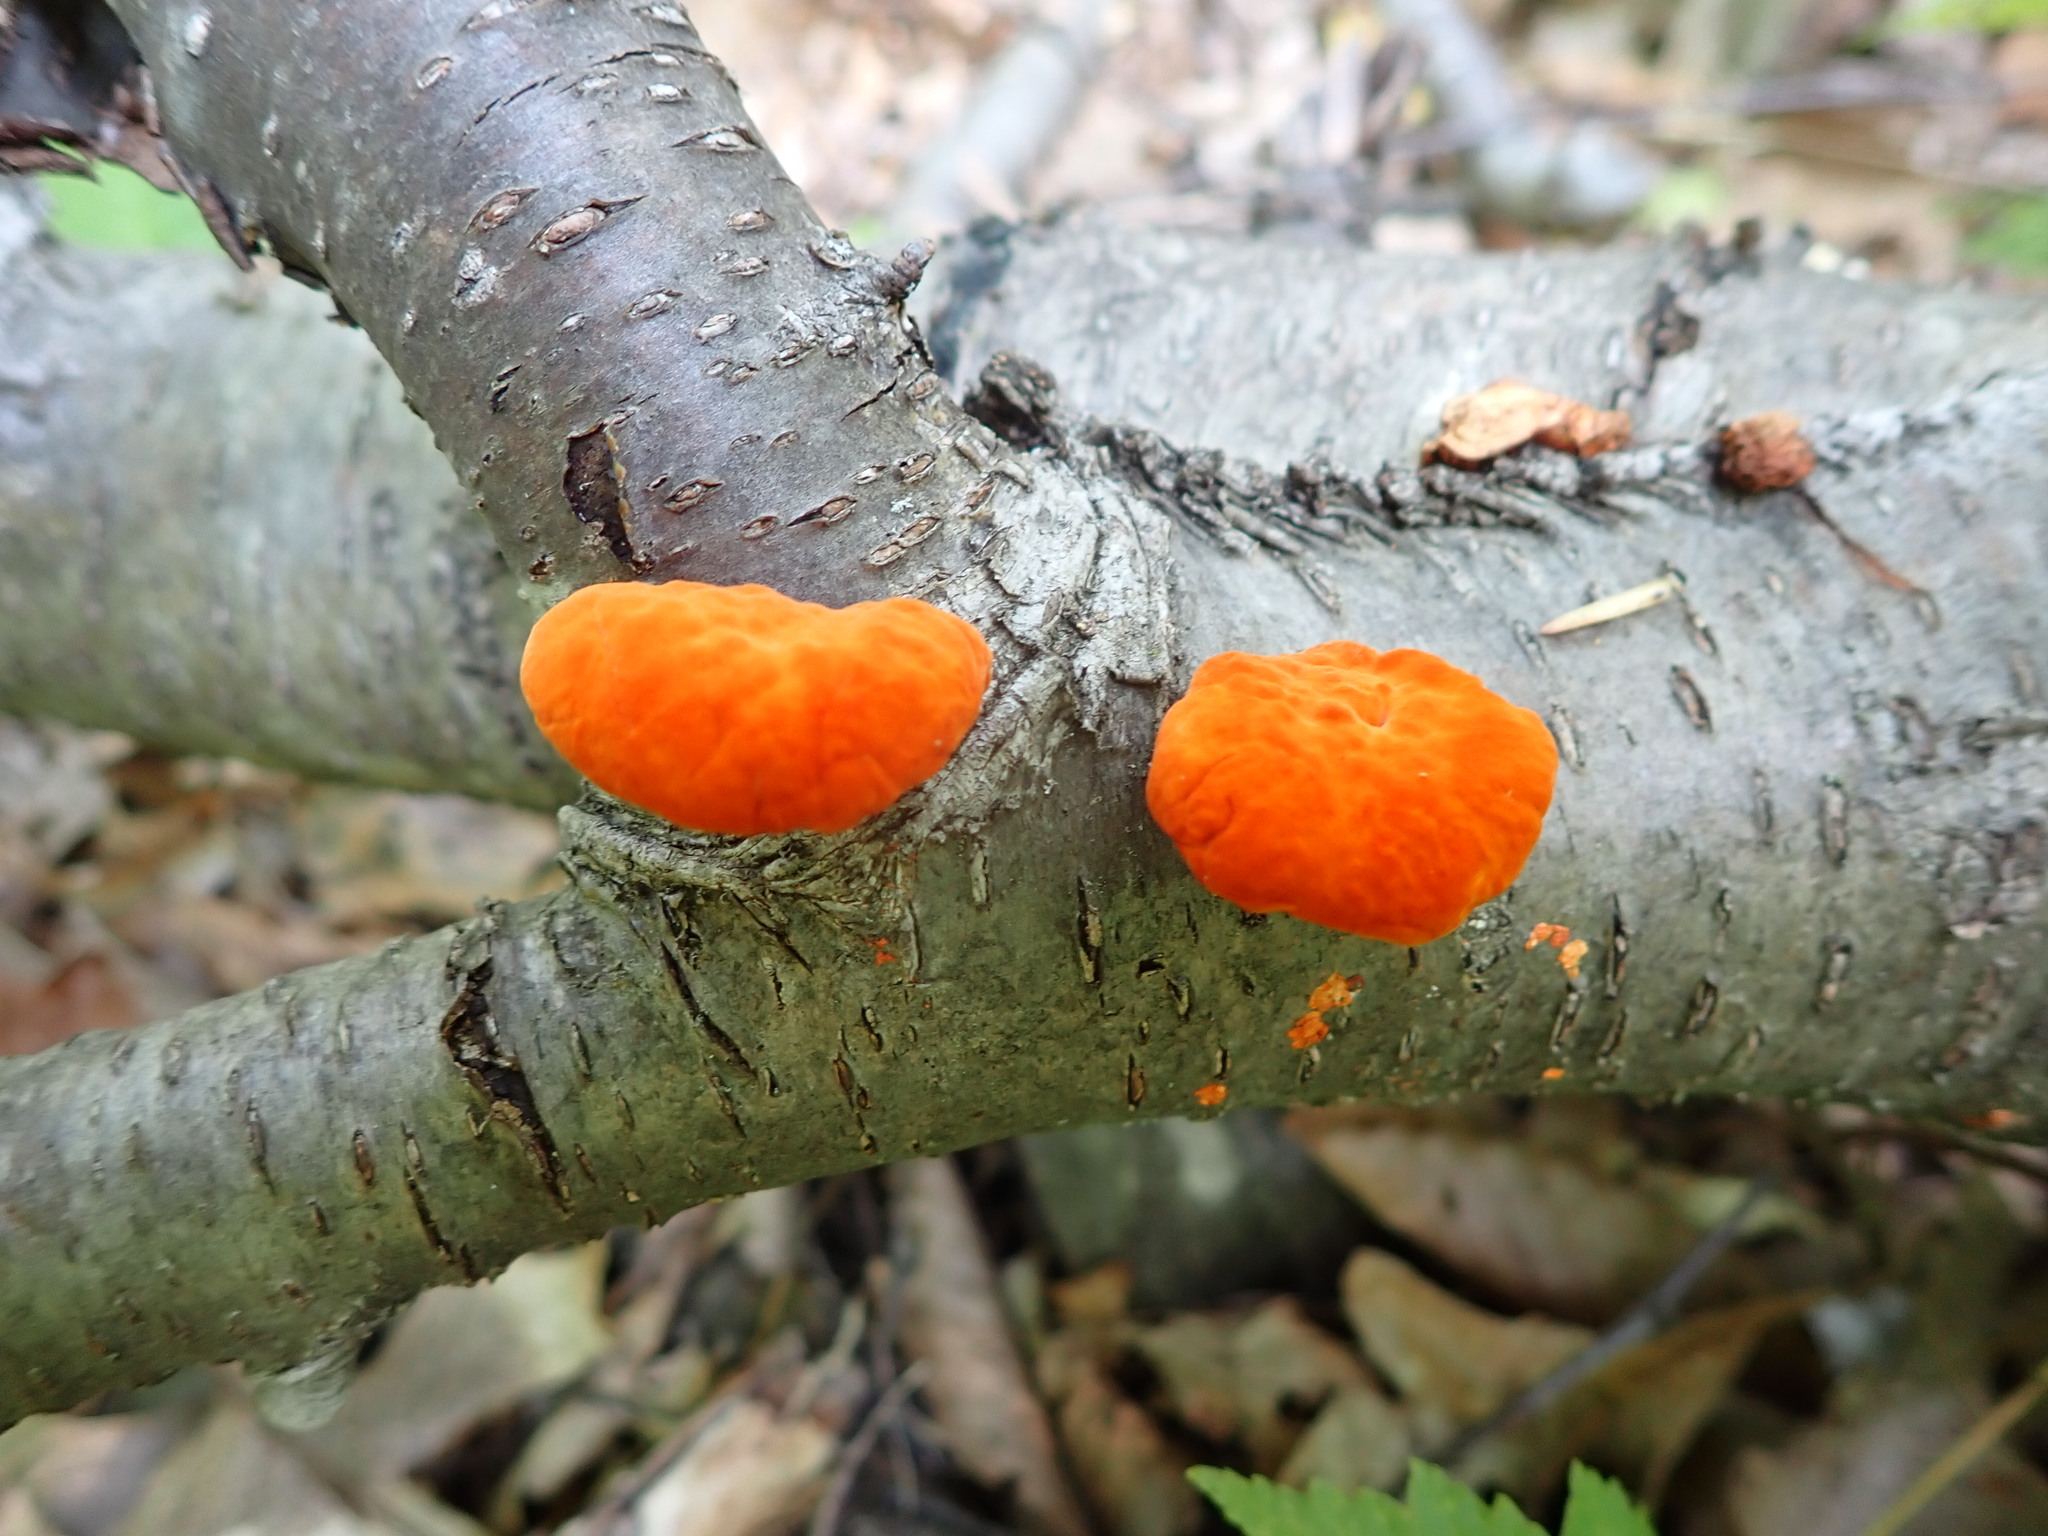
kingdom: Fungi
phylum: Basidiomycota
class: Agaricomycetes
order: Polyporales
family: Polyporaceae
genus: Trametes
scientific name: Trametes cinnabarina
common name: Northern cinnabar polypore
